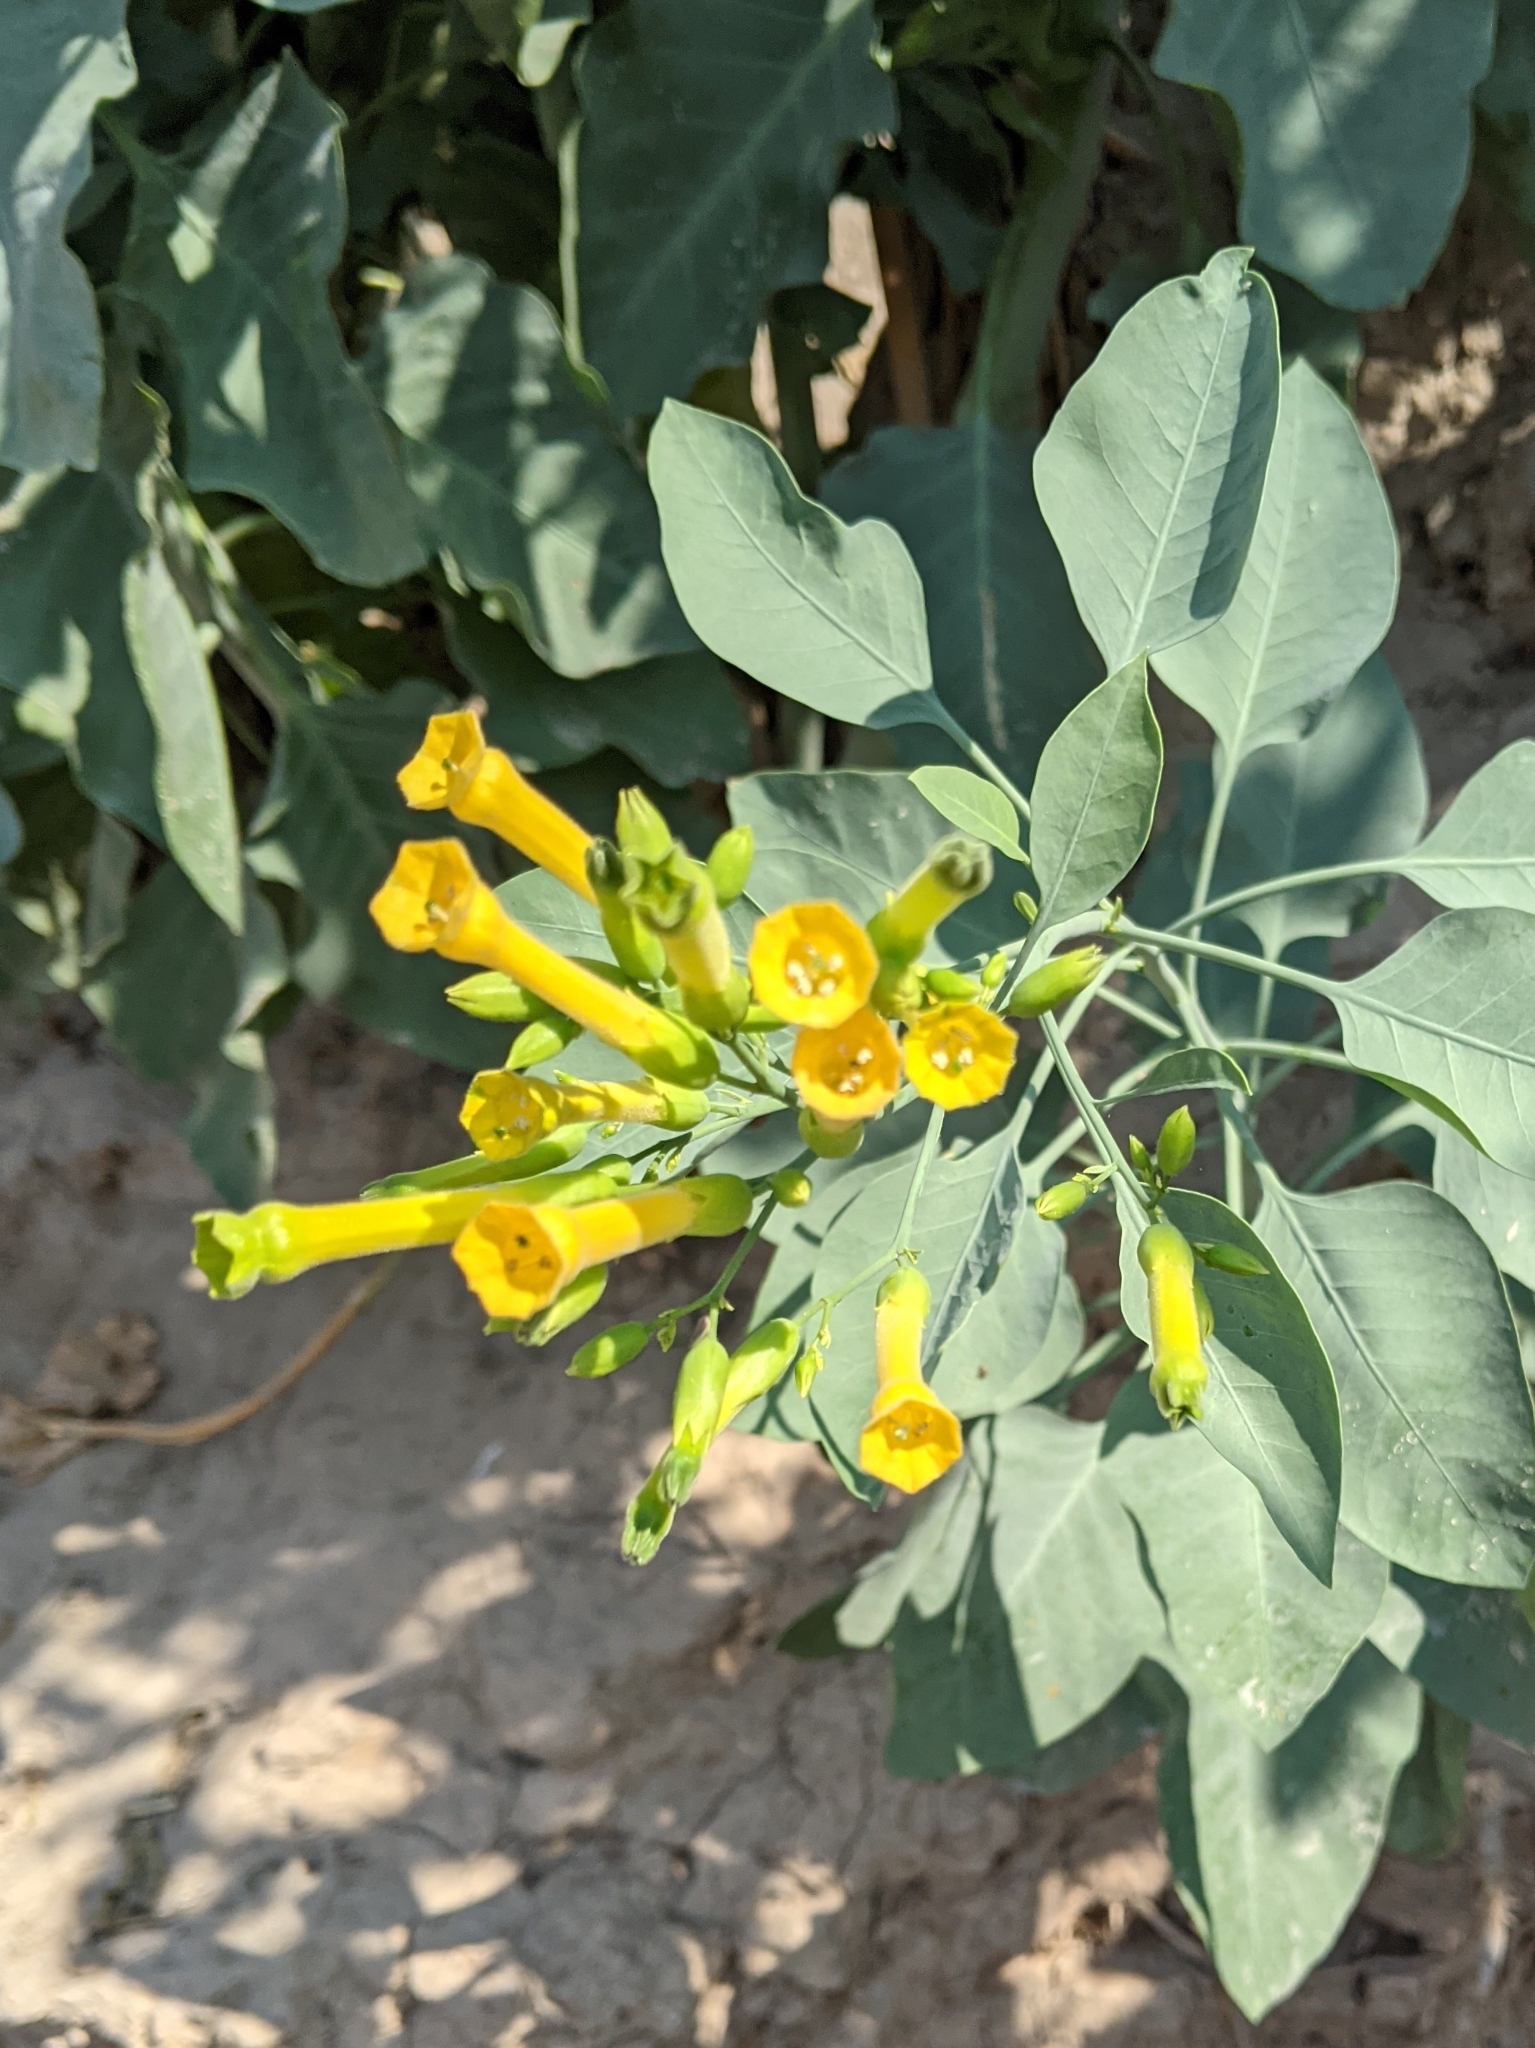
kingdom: Plantae
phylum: Tracheophyta
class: Magnoliopsida
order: Solanales
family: Solanaceae
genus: Nicotiana
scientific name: Nicotiana glauca
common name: Tree tobacco
